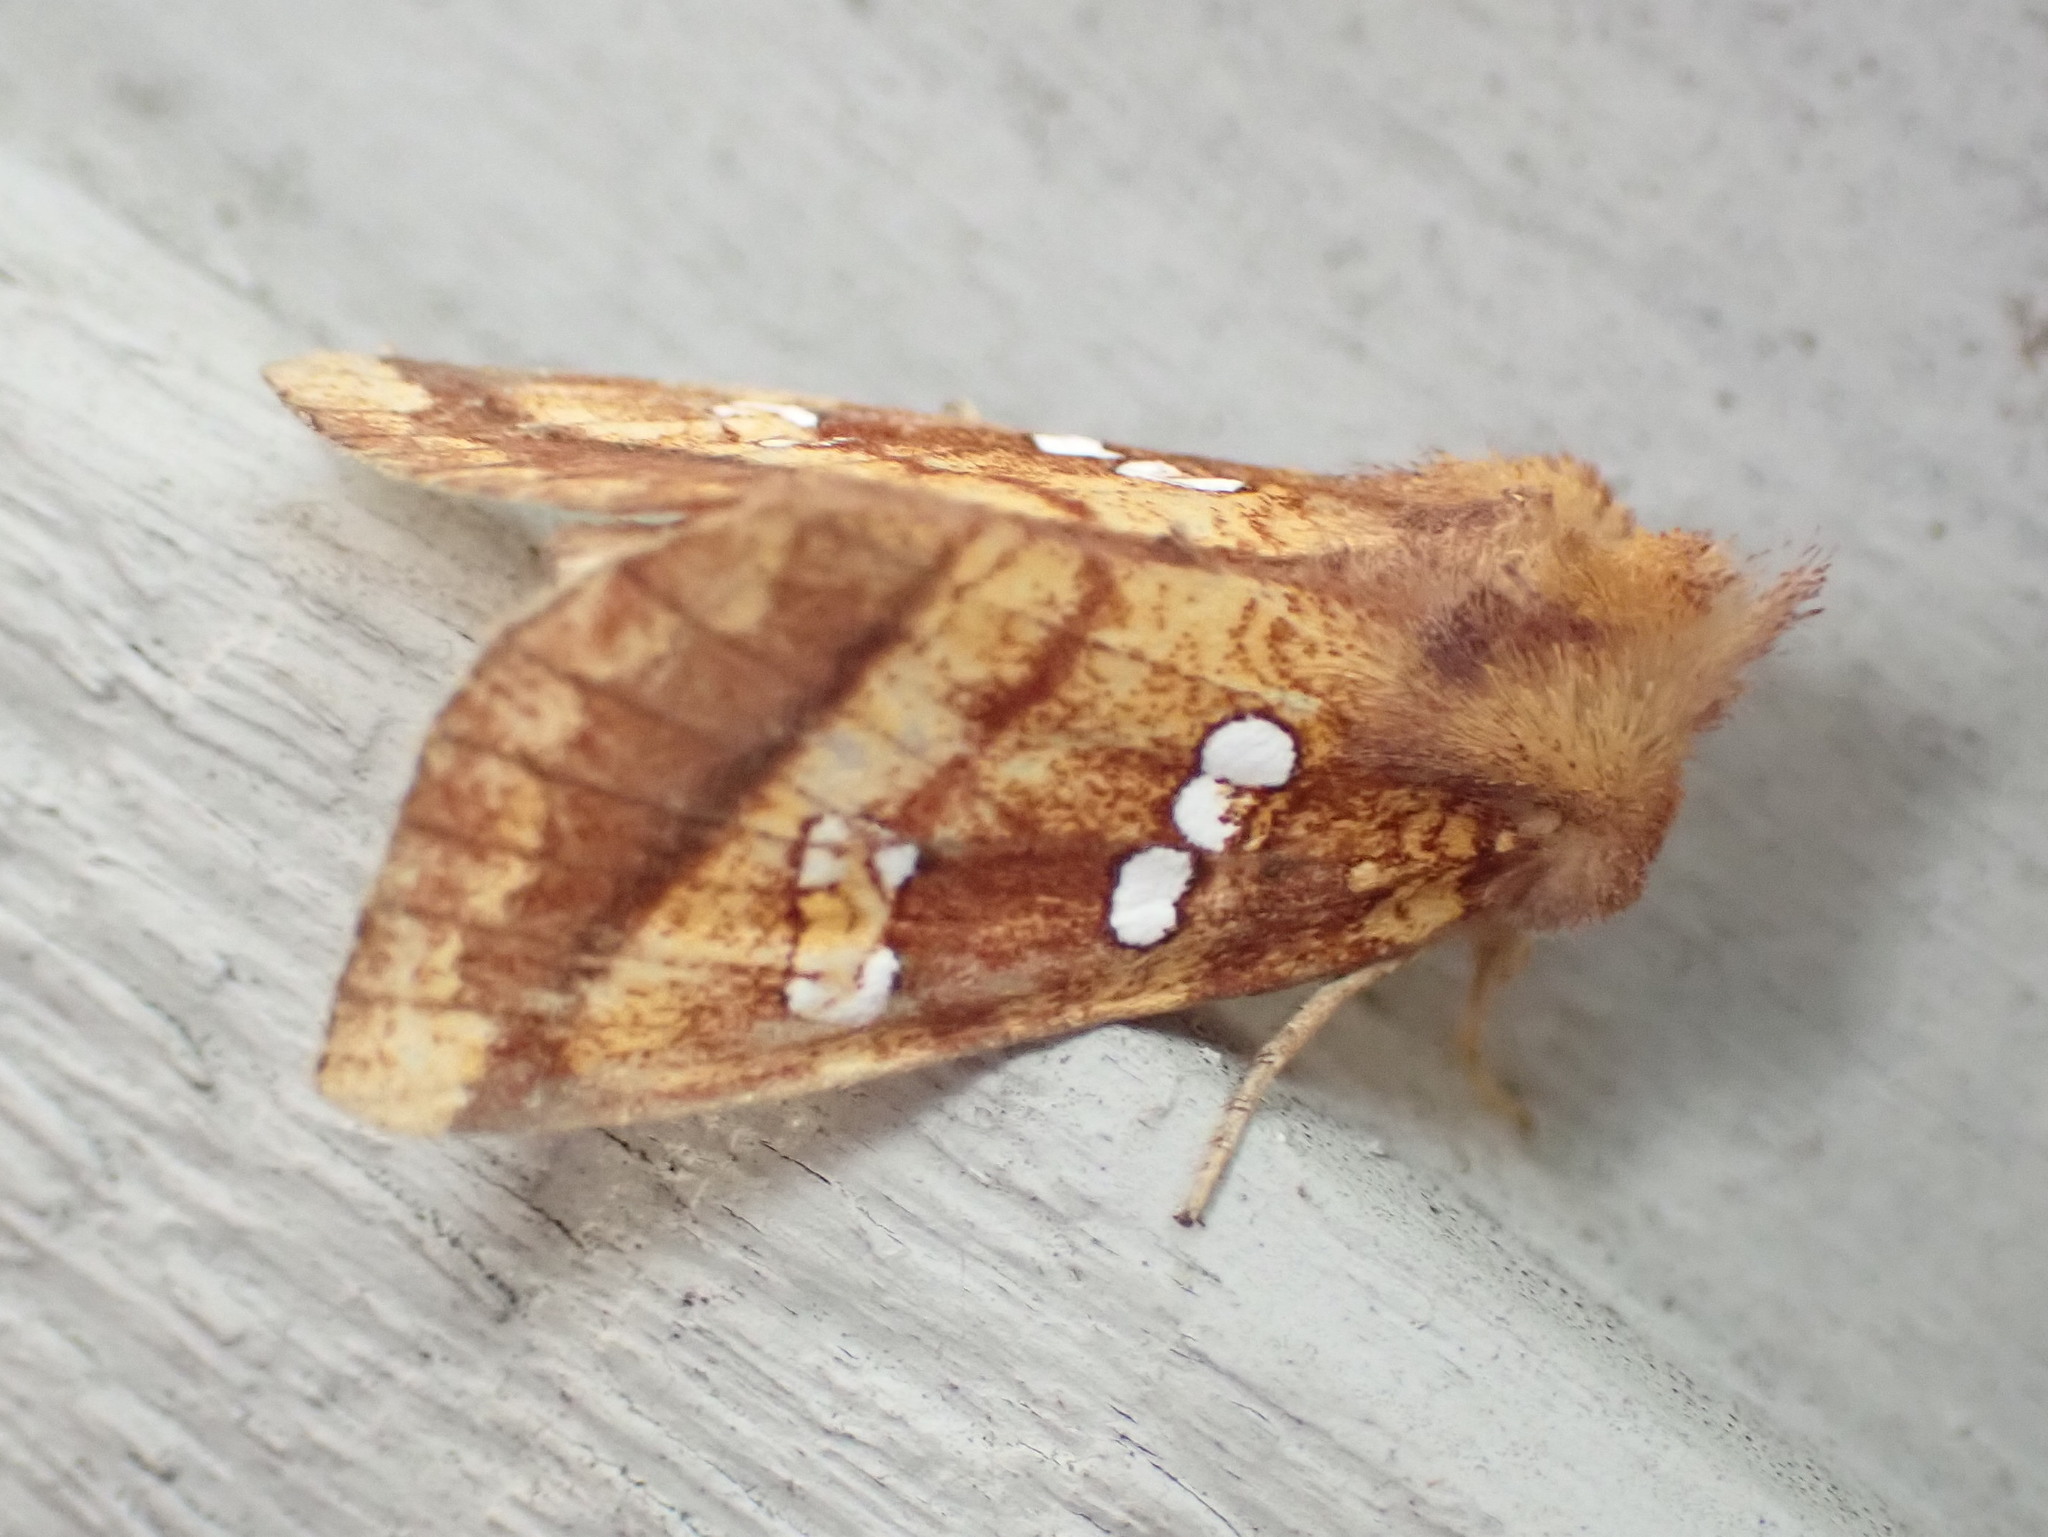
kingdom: Animalia
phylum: Arthropoda
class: Insecta
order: Lepidoptera
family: Noctuidae
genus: Papaipema
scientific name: Papaipema pterisii
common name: Bracken borer moth
